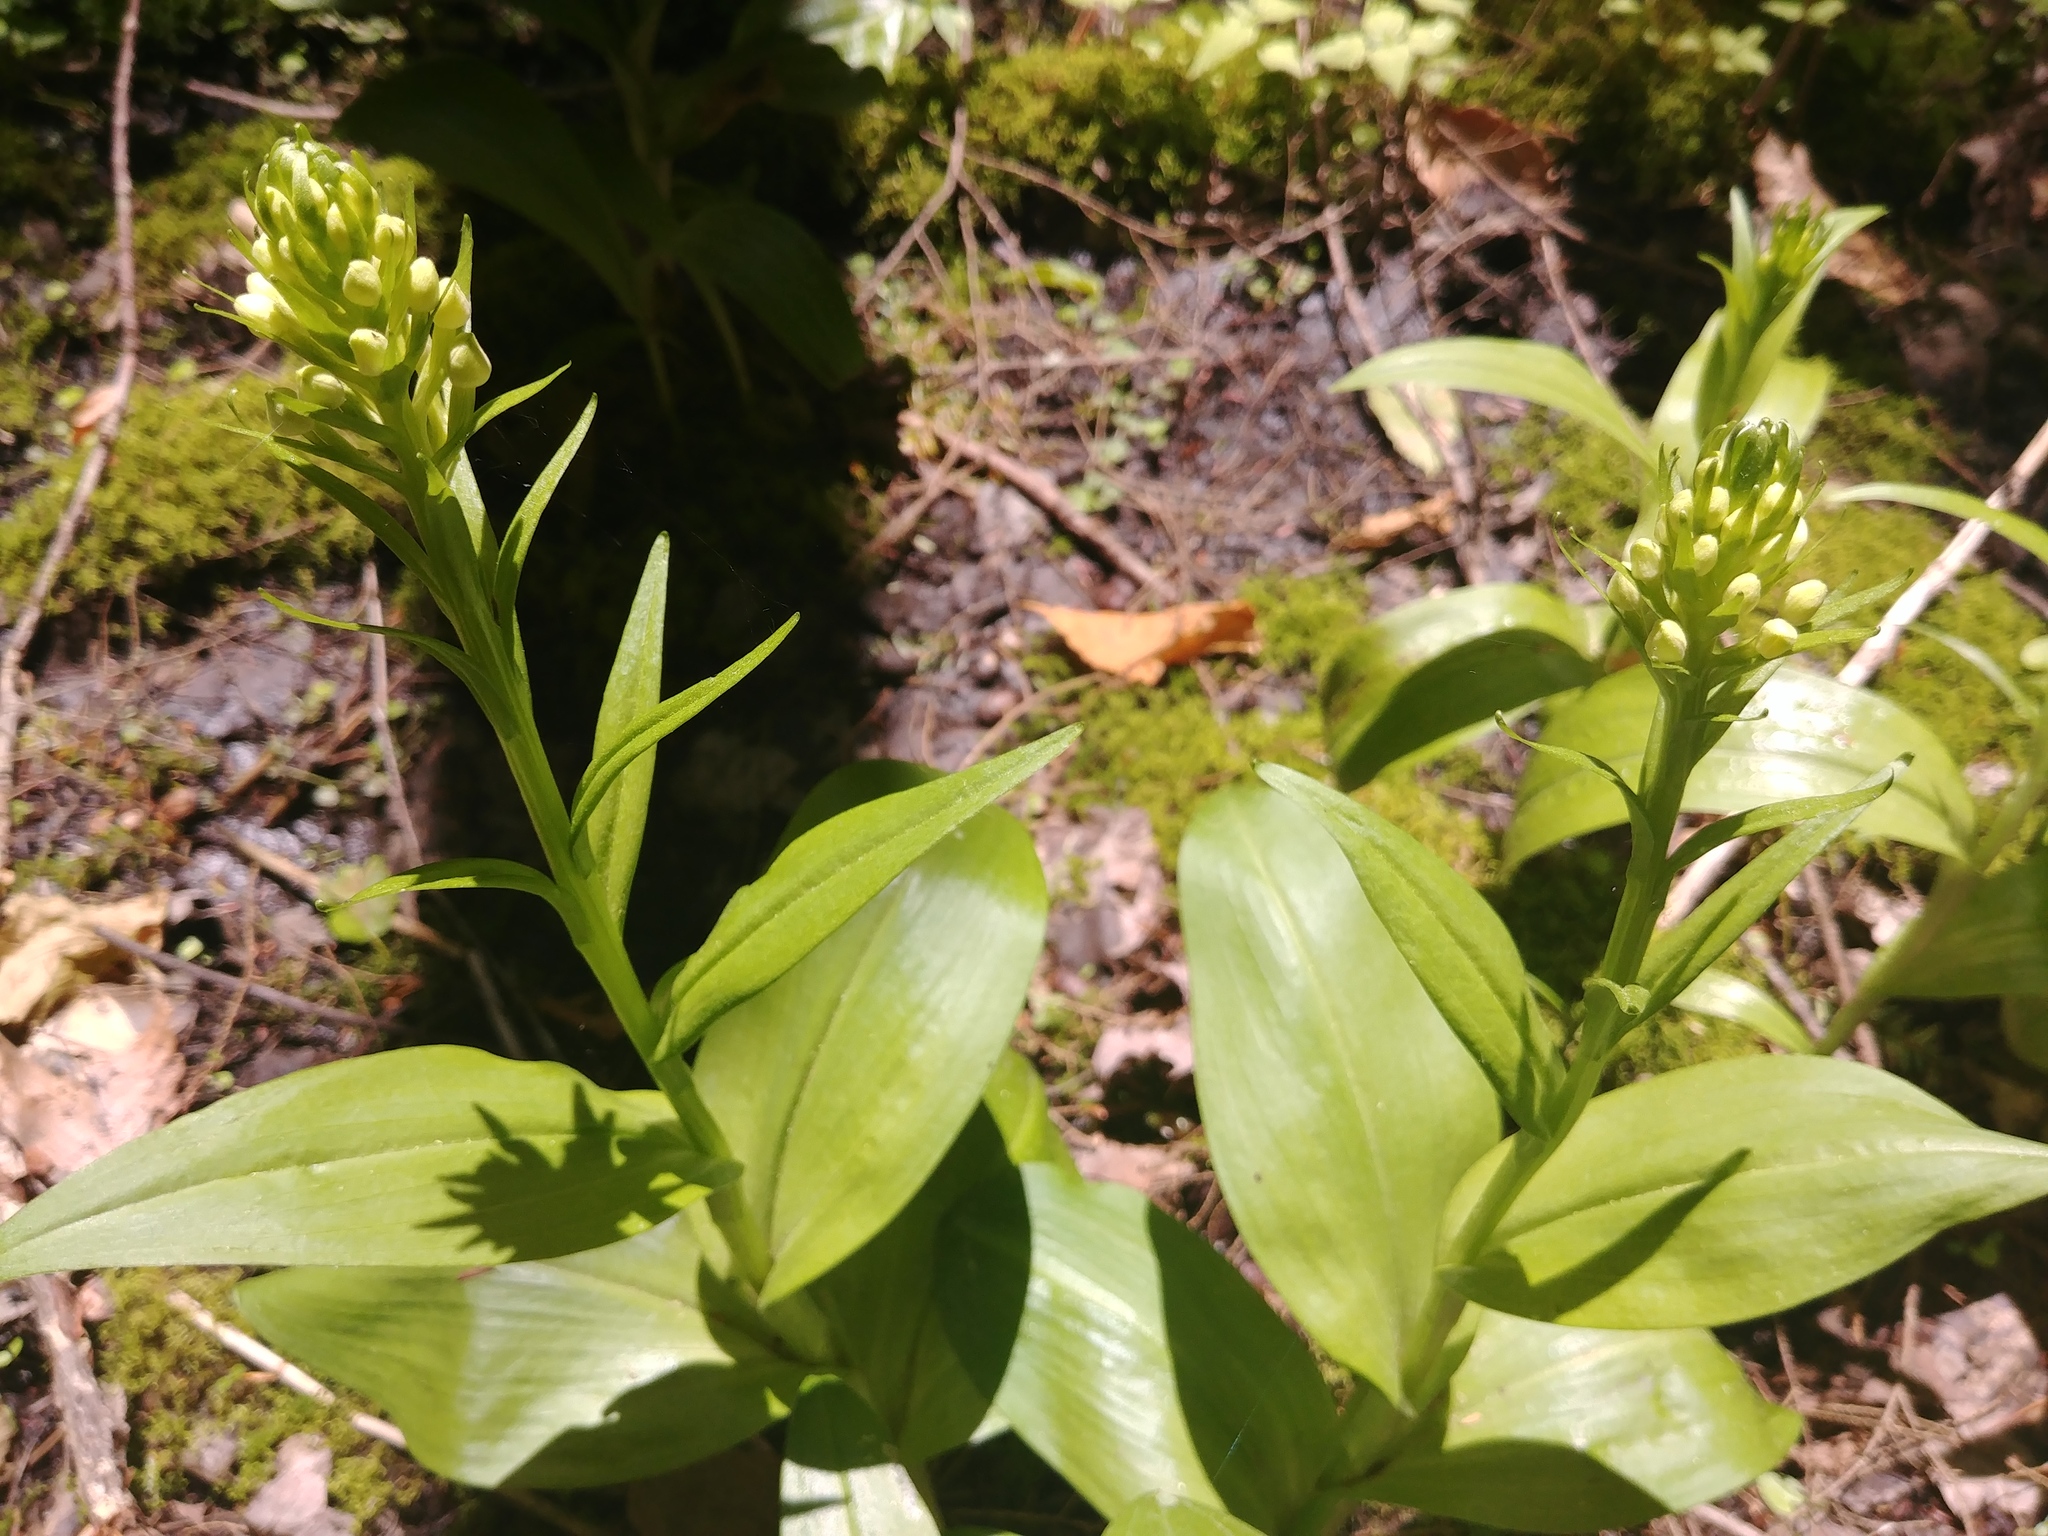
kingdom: Plantae
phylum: Tracheophyta
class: Liliopsida
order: Asparagales
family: Orchidaceae
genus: Platanthera
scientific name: Platanthera grandiflora
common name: Greater purple fringed orchid
